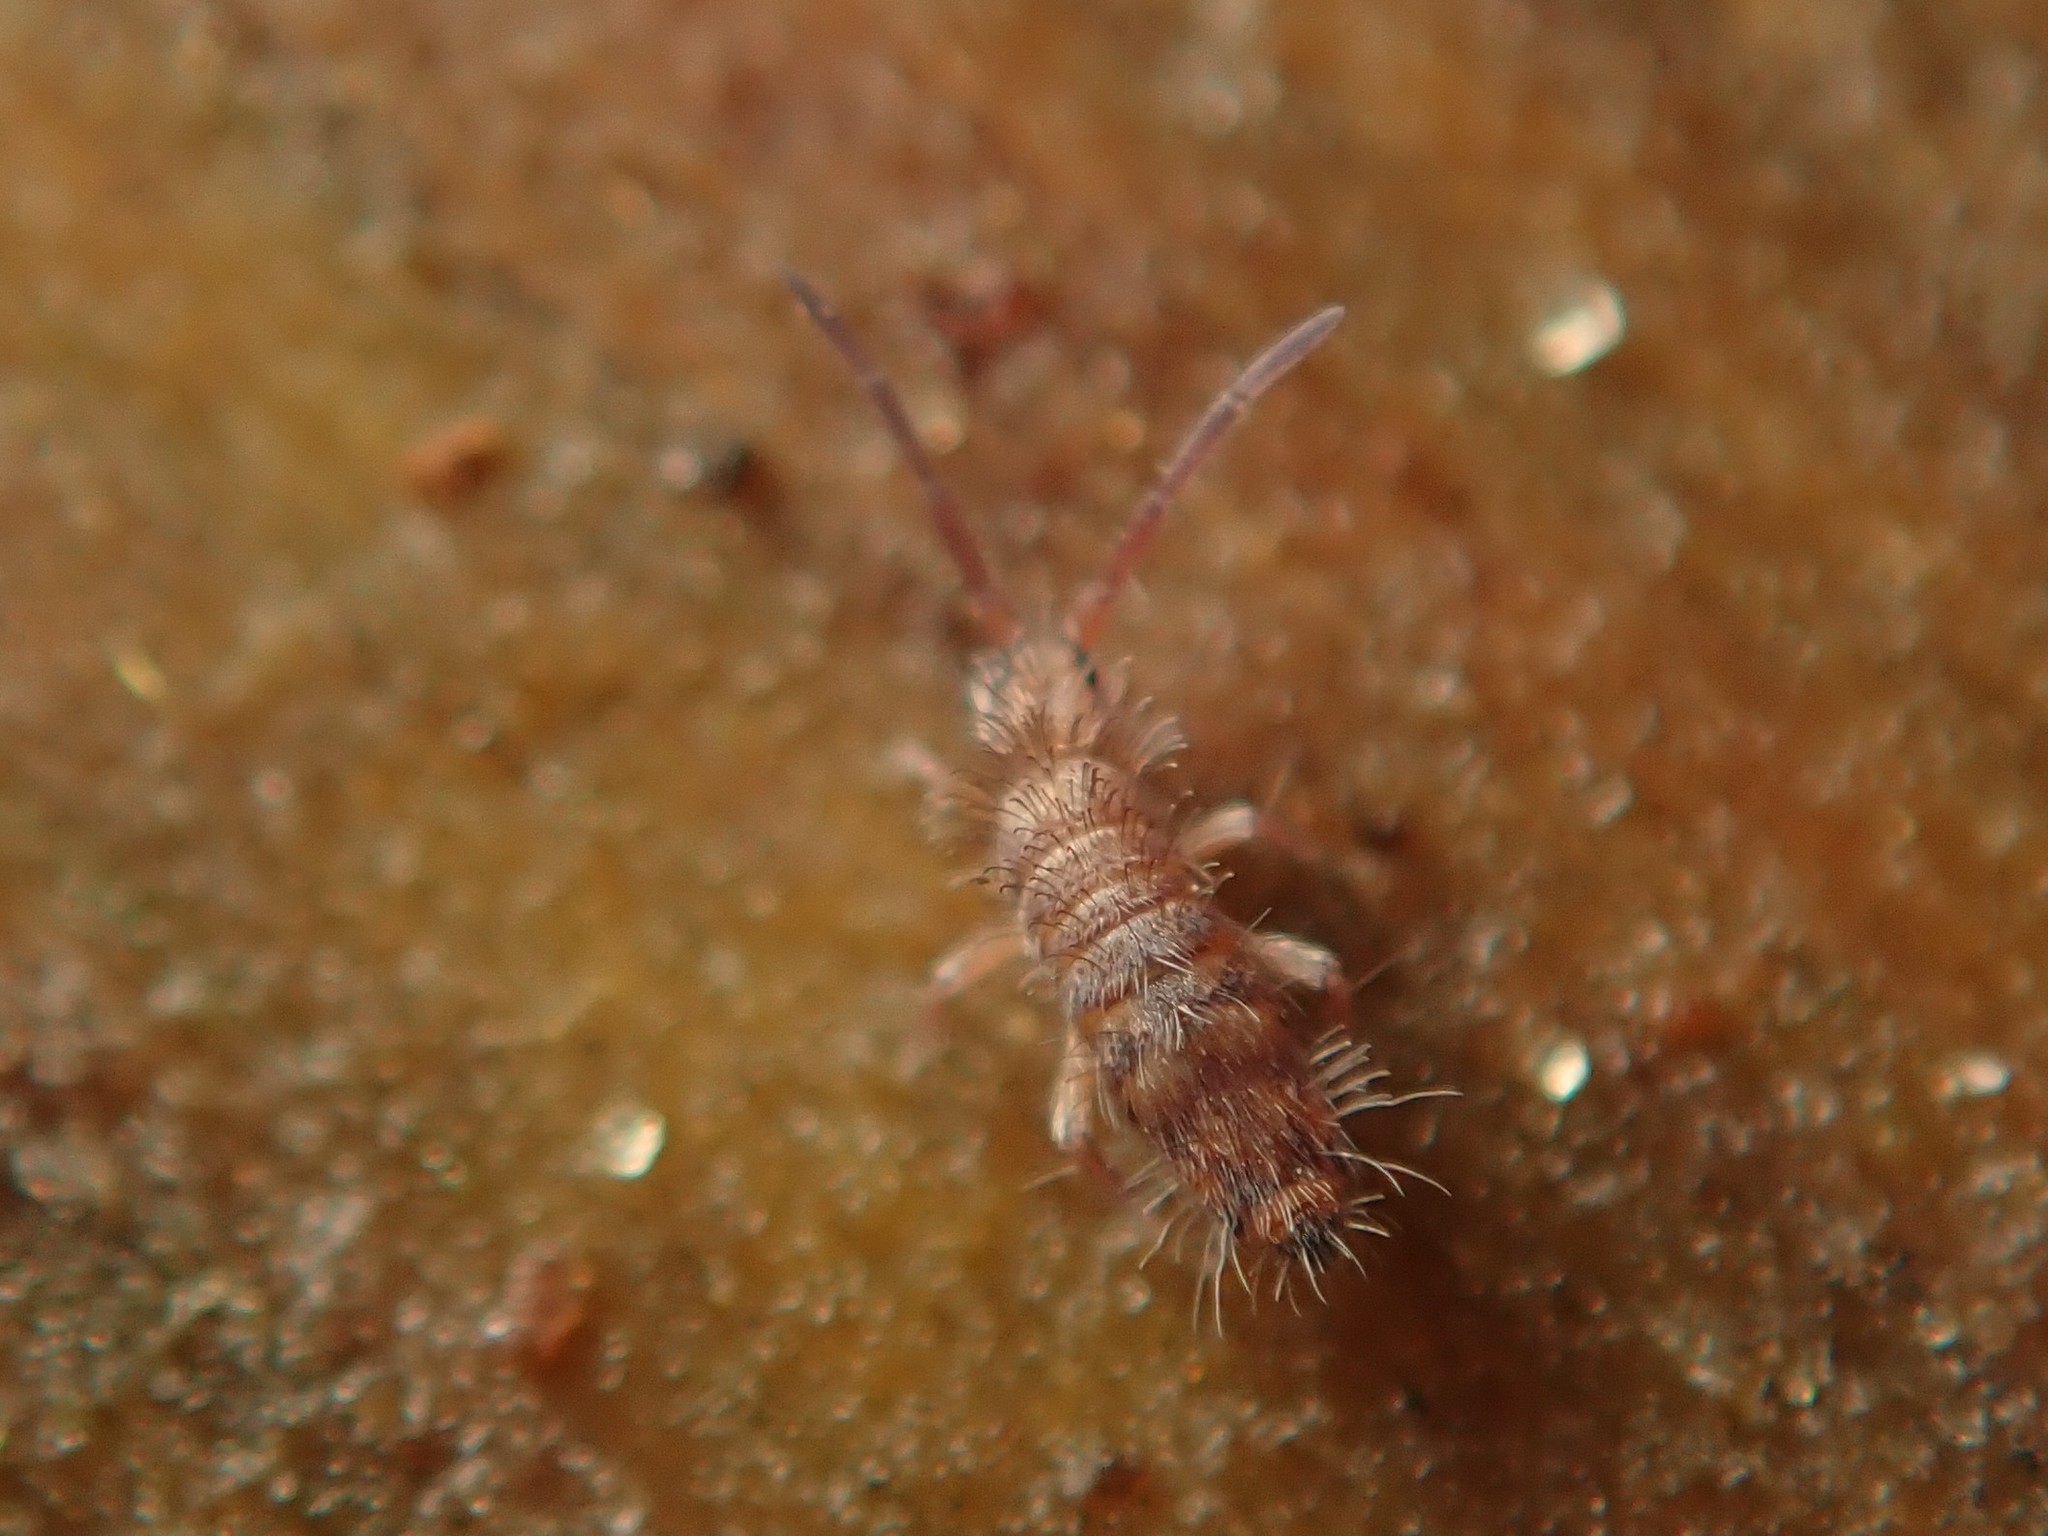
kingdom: Animalia
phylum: Arthropoda
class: Collembola
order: Entomobryomorpha
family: Entomobryidae
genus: Entomobrya
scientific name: Entomobrya multifasciata
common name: Springtail
